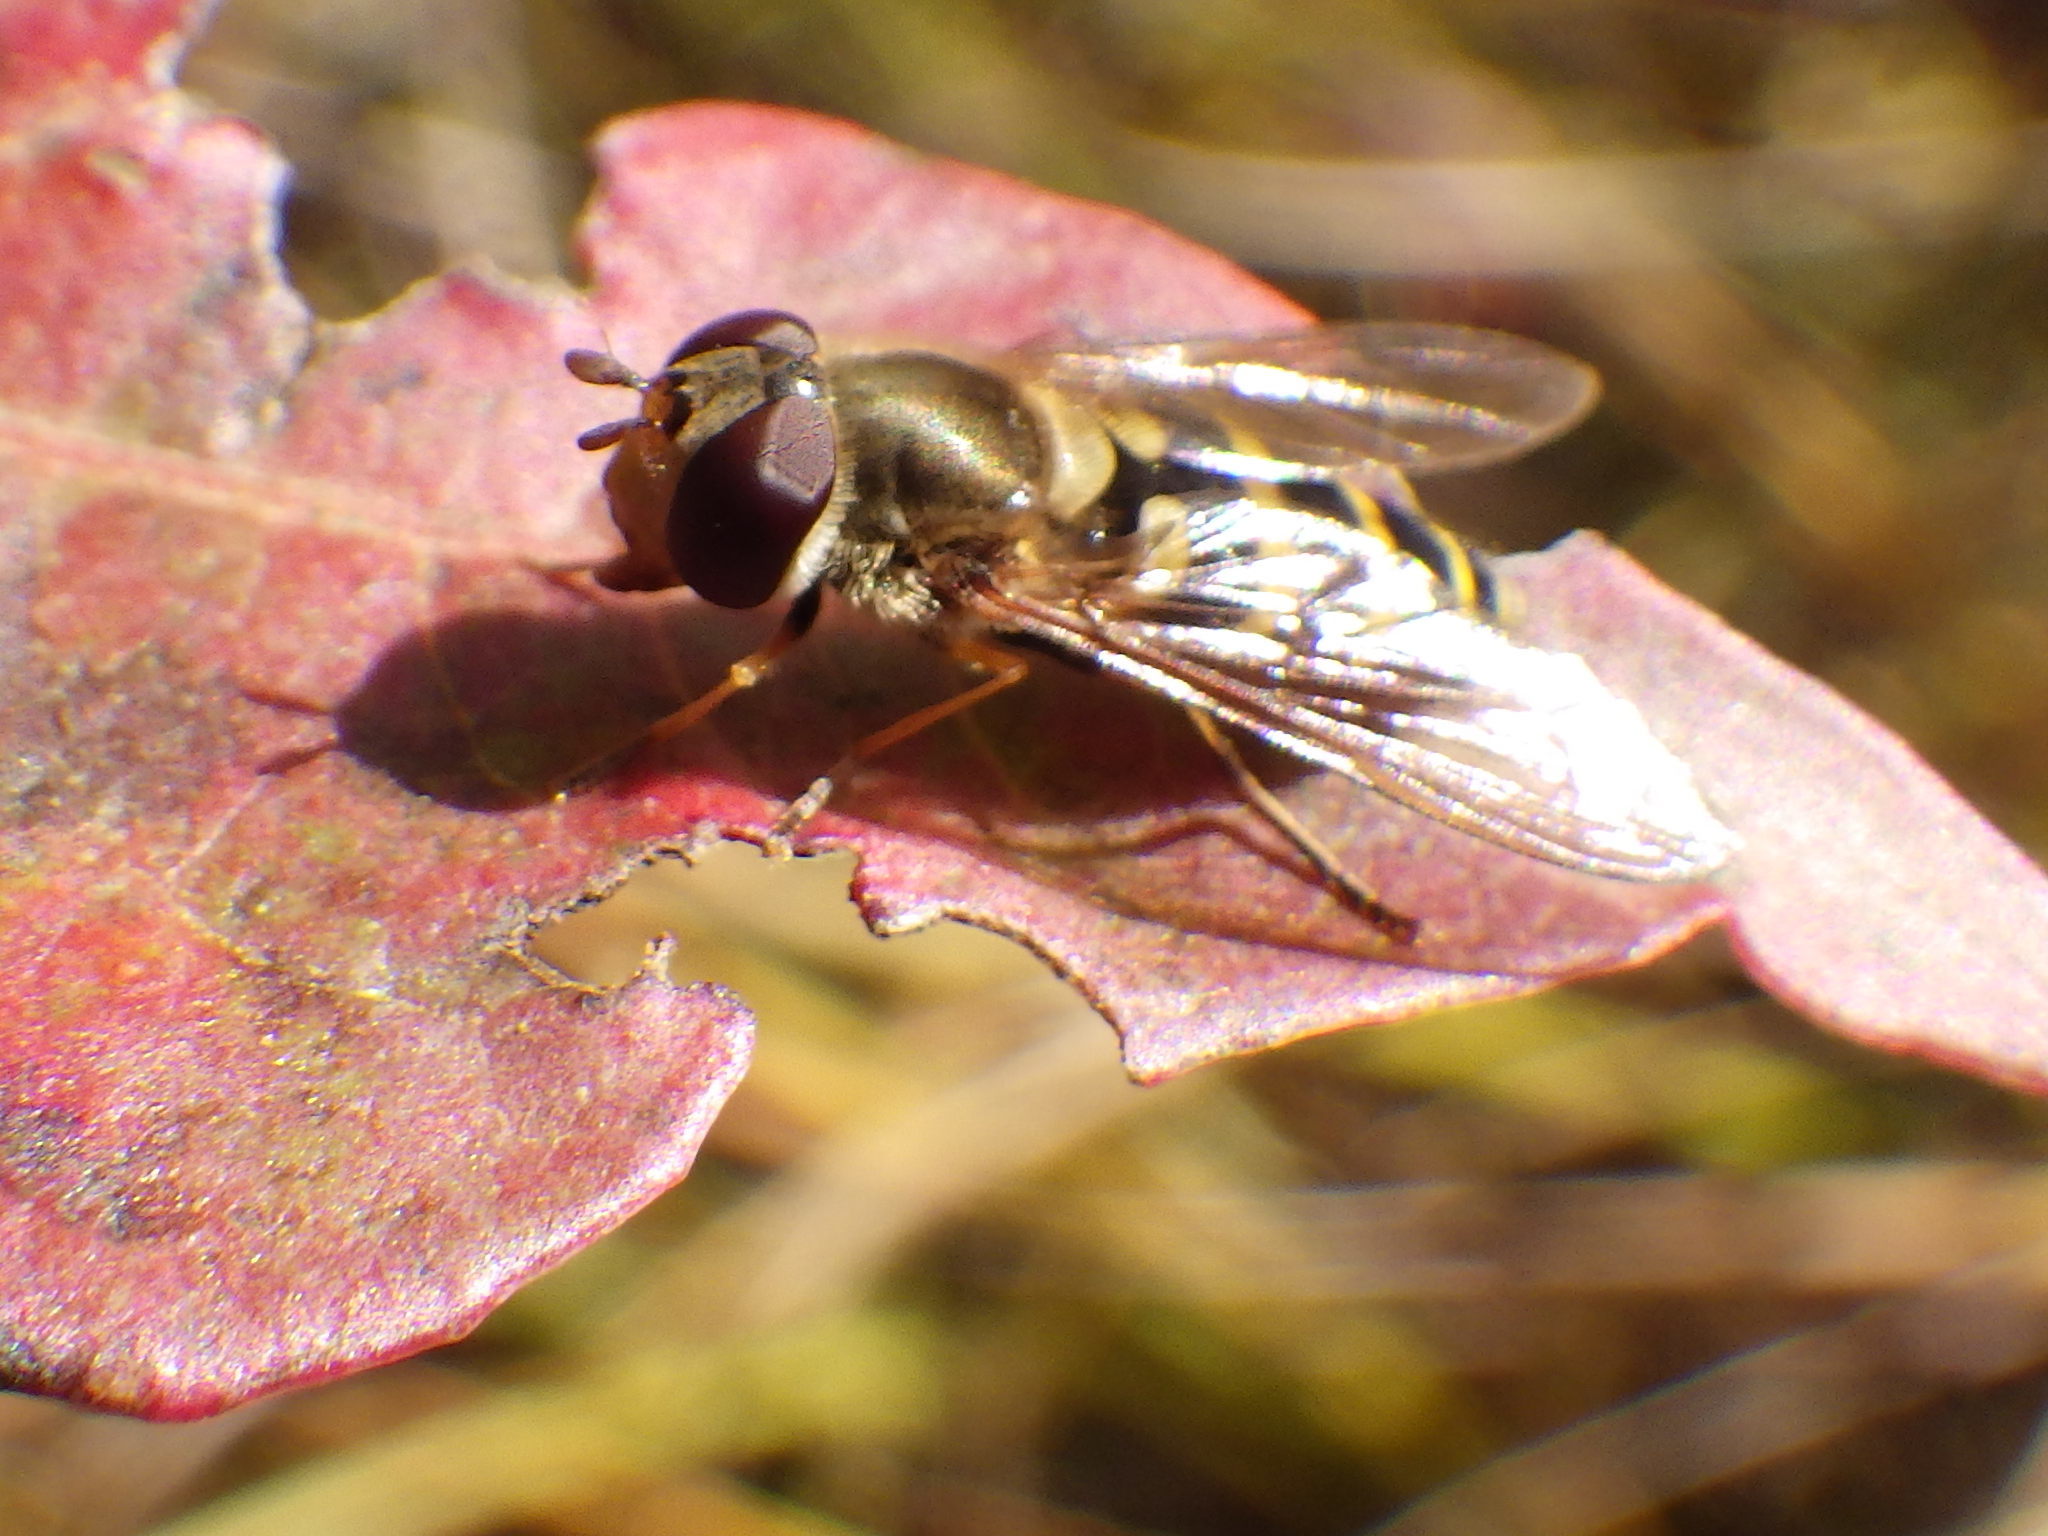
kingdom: Animalia
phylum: Arthropoda
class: Insecta
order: Diptera
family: Syrphidae
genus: Syrphus
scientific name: Syrphus
